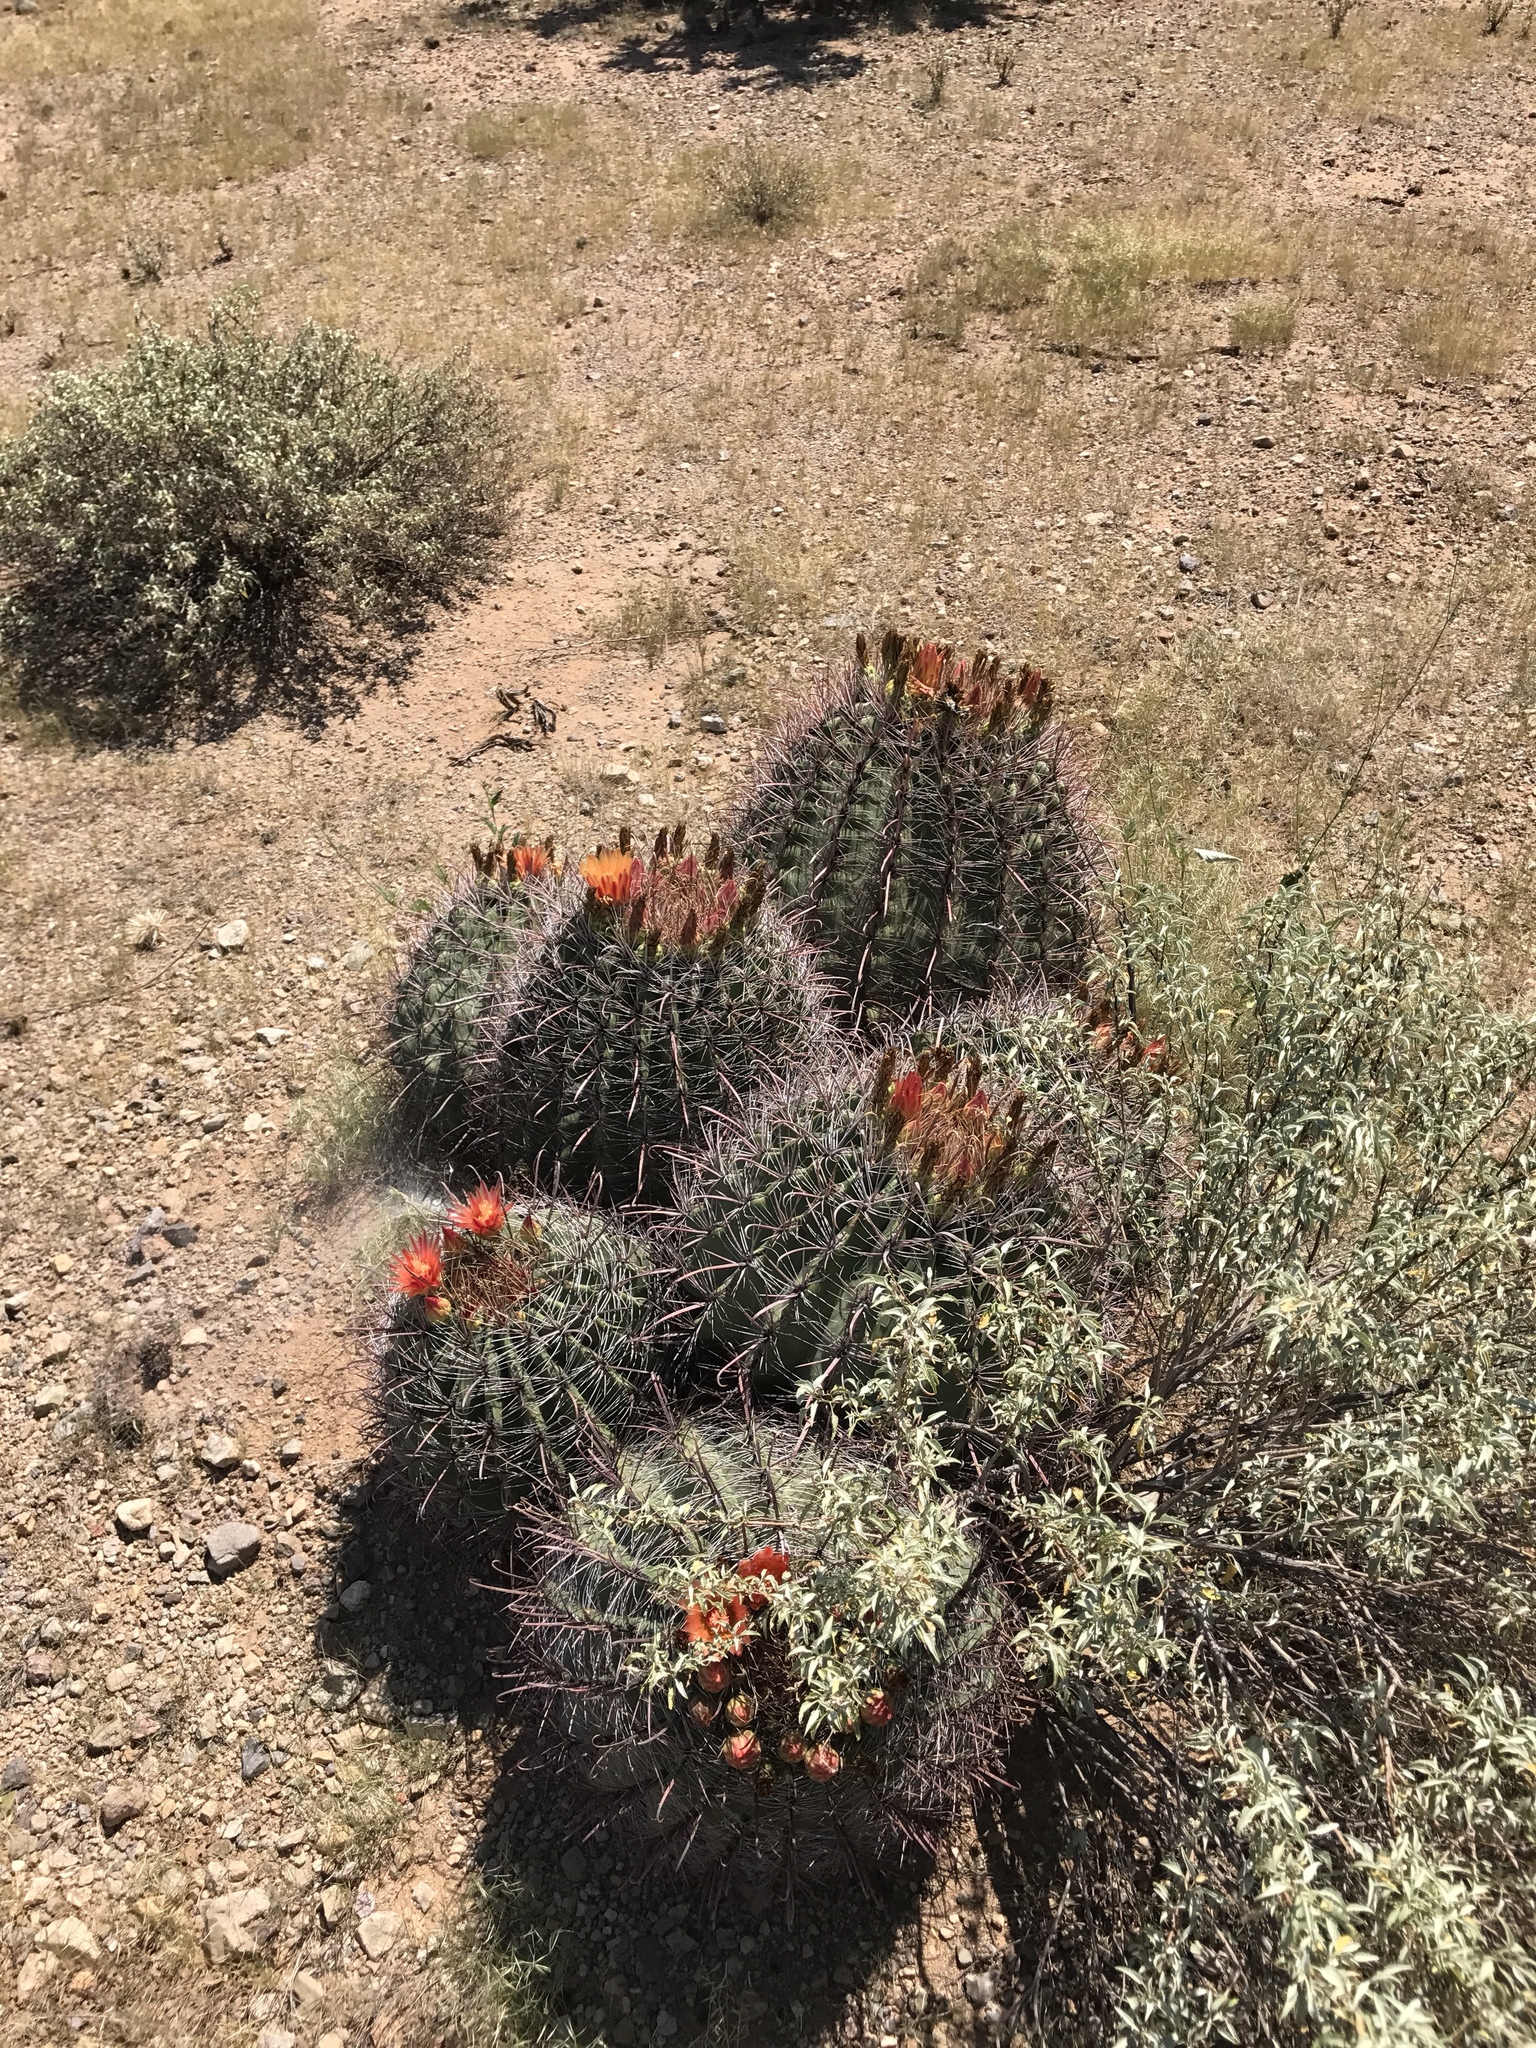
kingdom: Plantae
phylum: Tracheophyta
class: Magnoliopsida
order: Caryophyllales
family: Cactaceae
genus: Ferocactus
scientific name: Ferocactus wislizeni
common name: Candy barrel cactus
